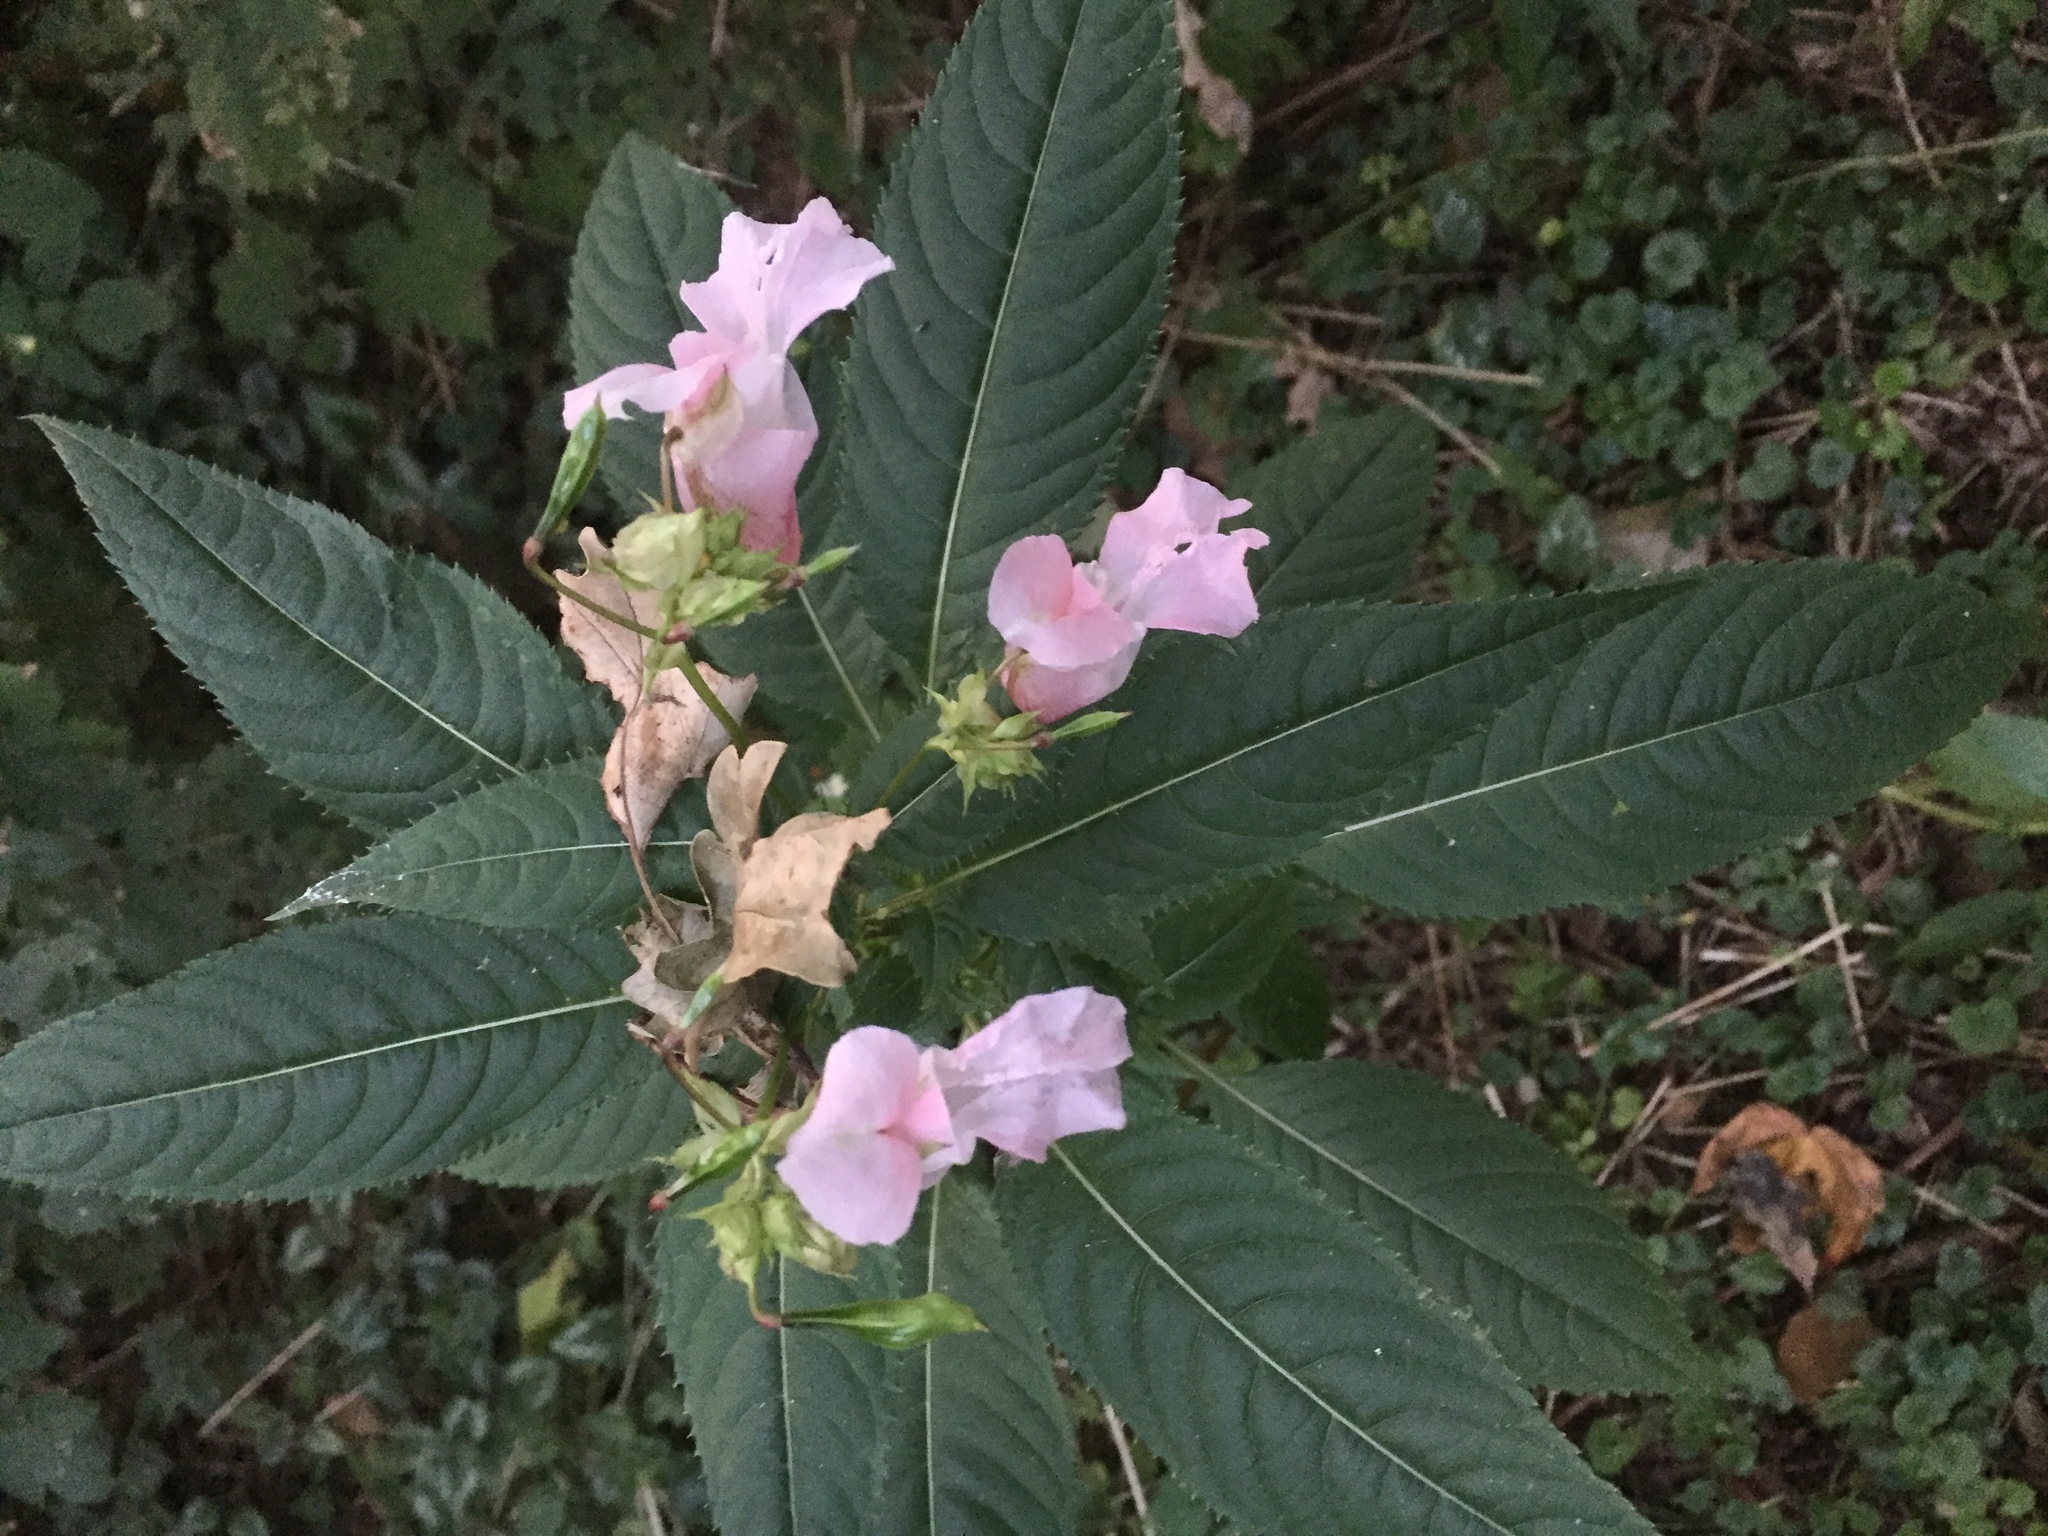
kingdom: Plantae
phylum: Tracheophyta
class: Magnoliopsida
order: Ericales
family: Balsaminaceae
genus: Impatiens
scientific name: Impatiens glandulifera
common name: Himalayan balsam
